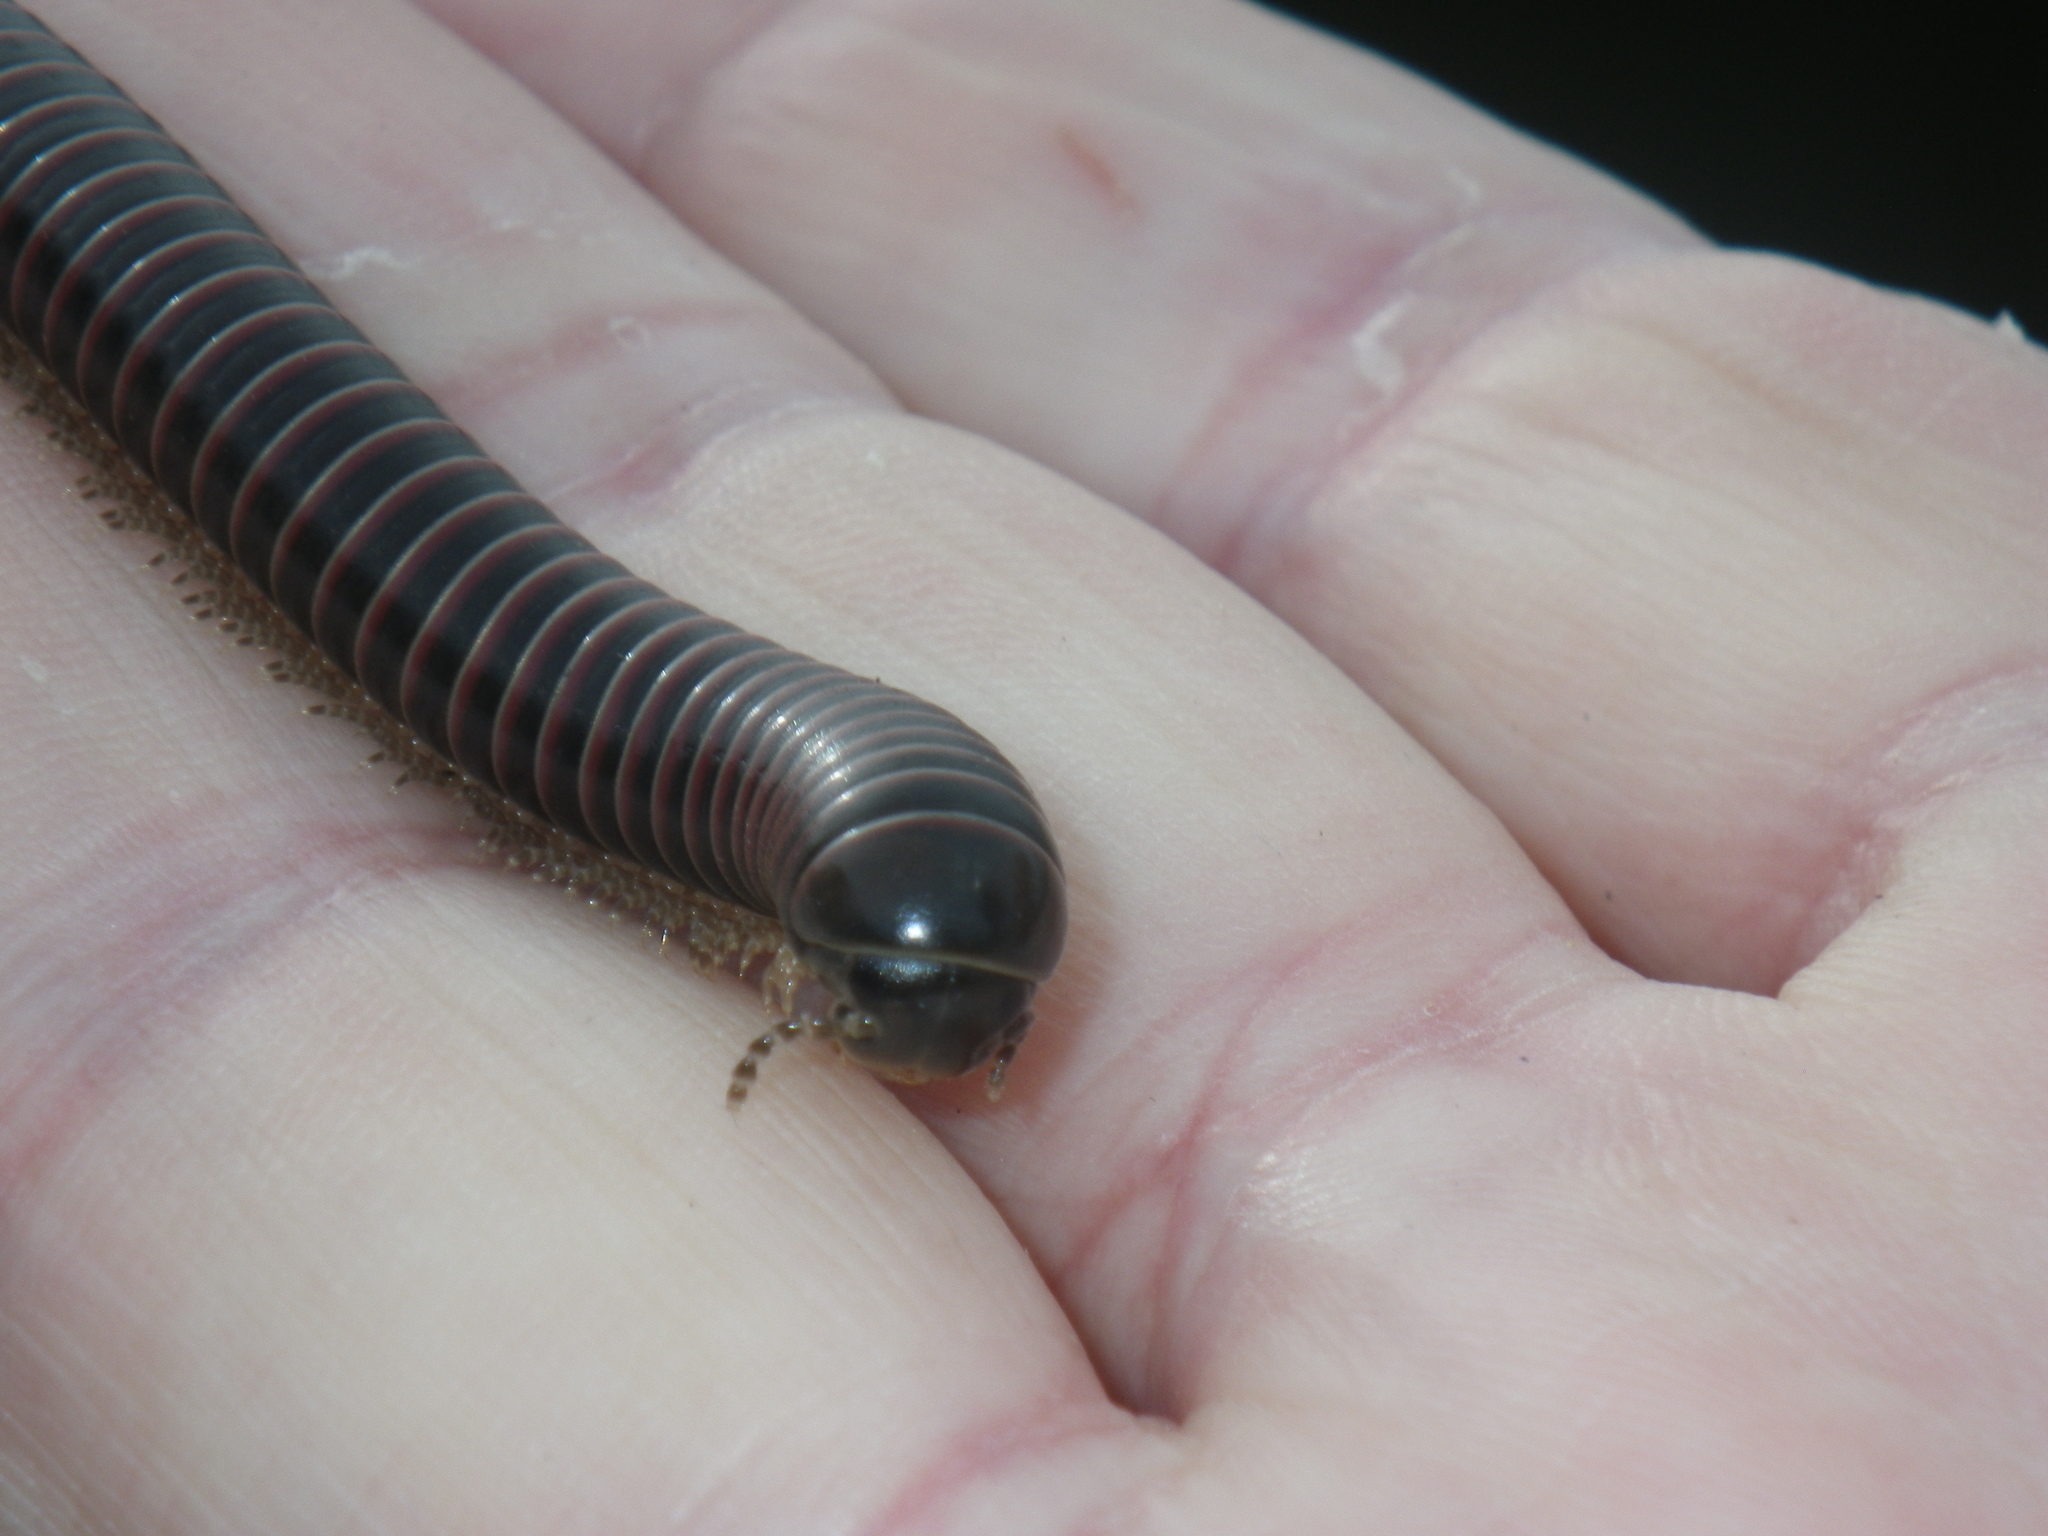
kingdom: Animalia
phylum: Arthropoda
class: Diplopoda
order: Spirobolida
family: Spirobolidae
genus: Tylobolus
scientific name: Tylobolus castaneus
